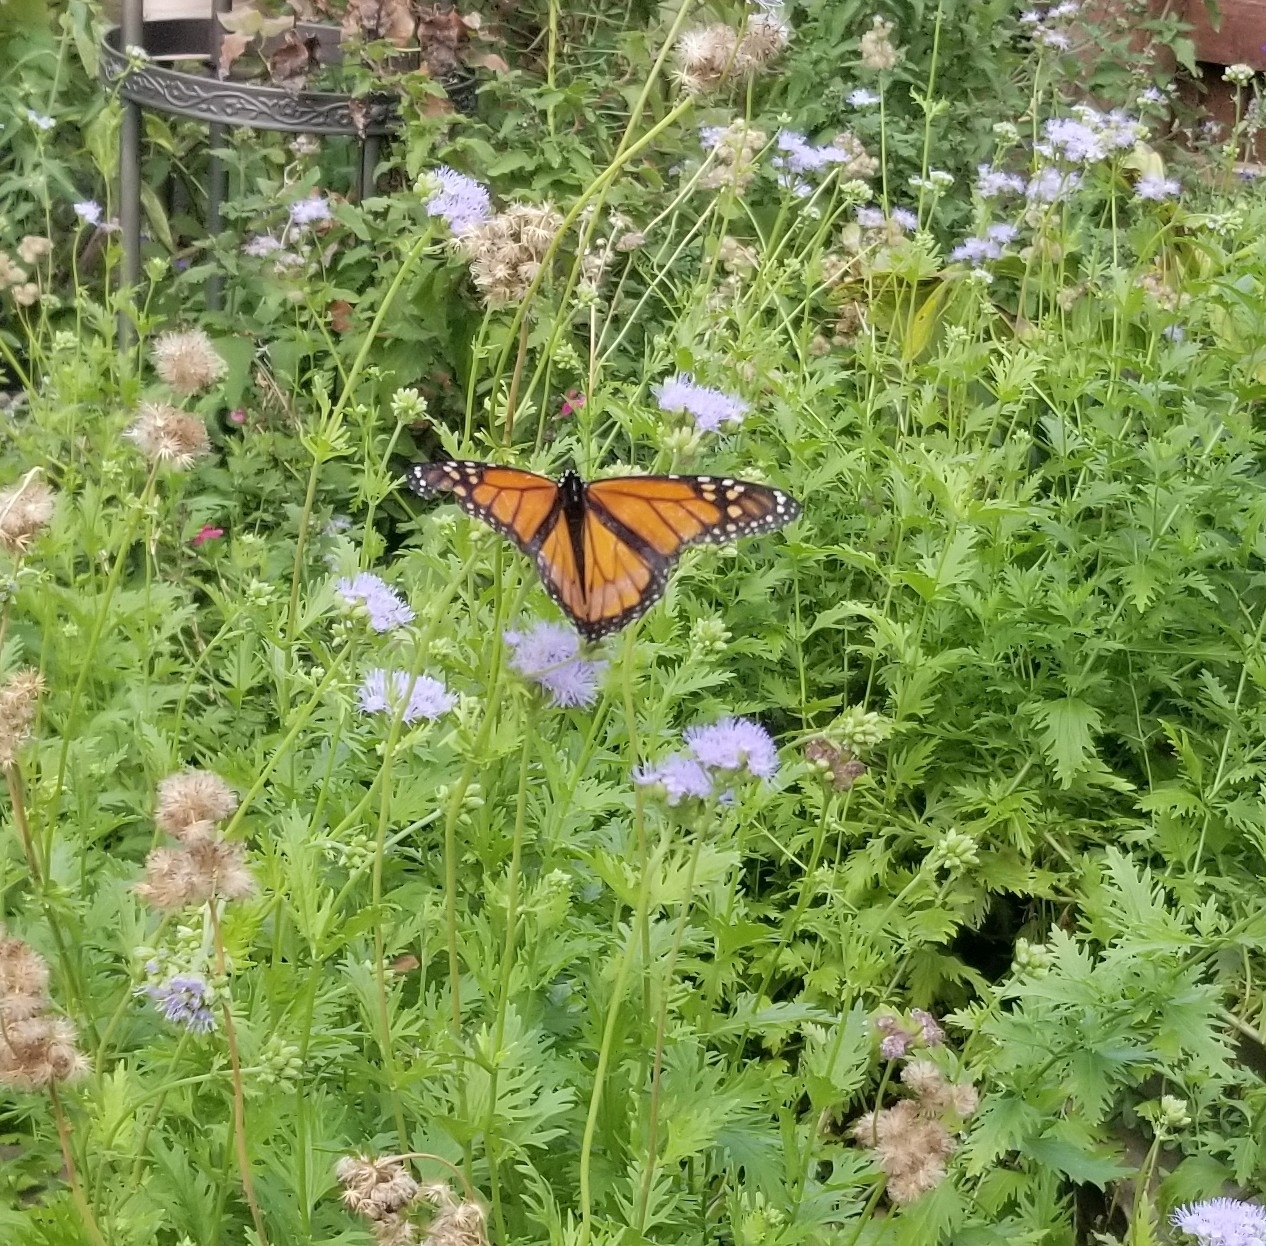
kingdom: Animalia
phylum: Arthropoda
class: Insecta
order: Lepidoptera
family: Nymphalidae
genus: Danaus
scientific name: Danaus plexippus
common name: Monarch
